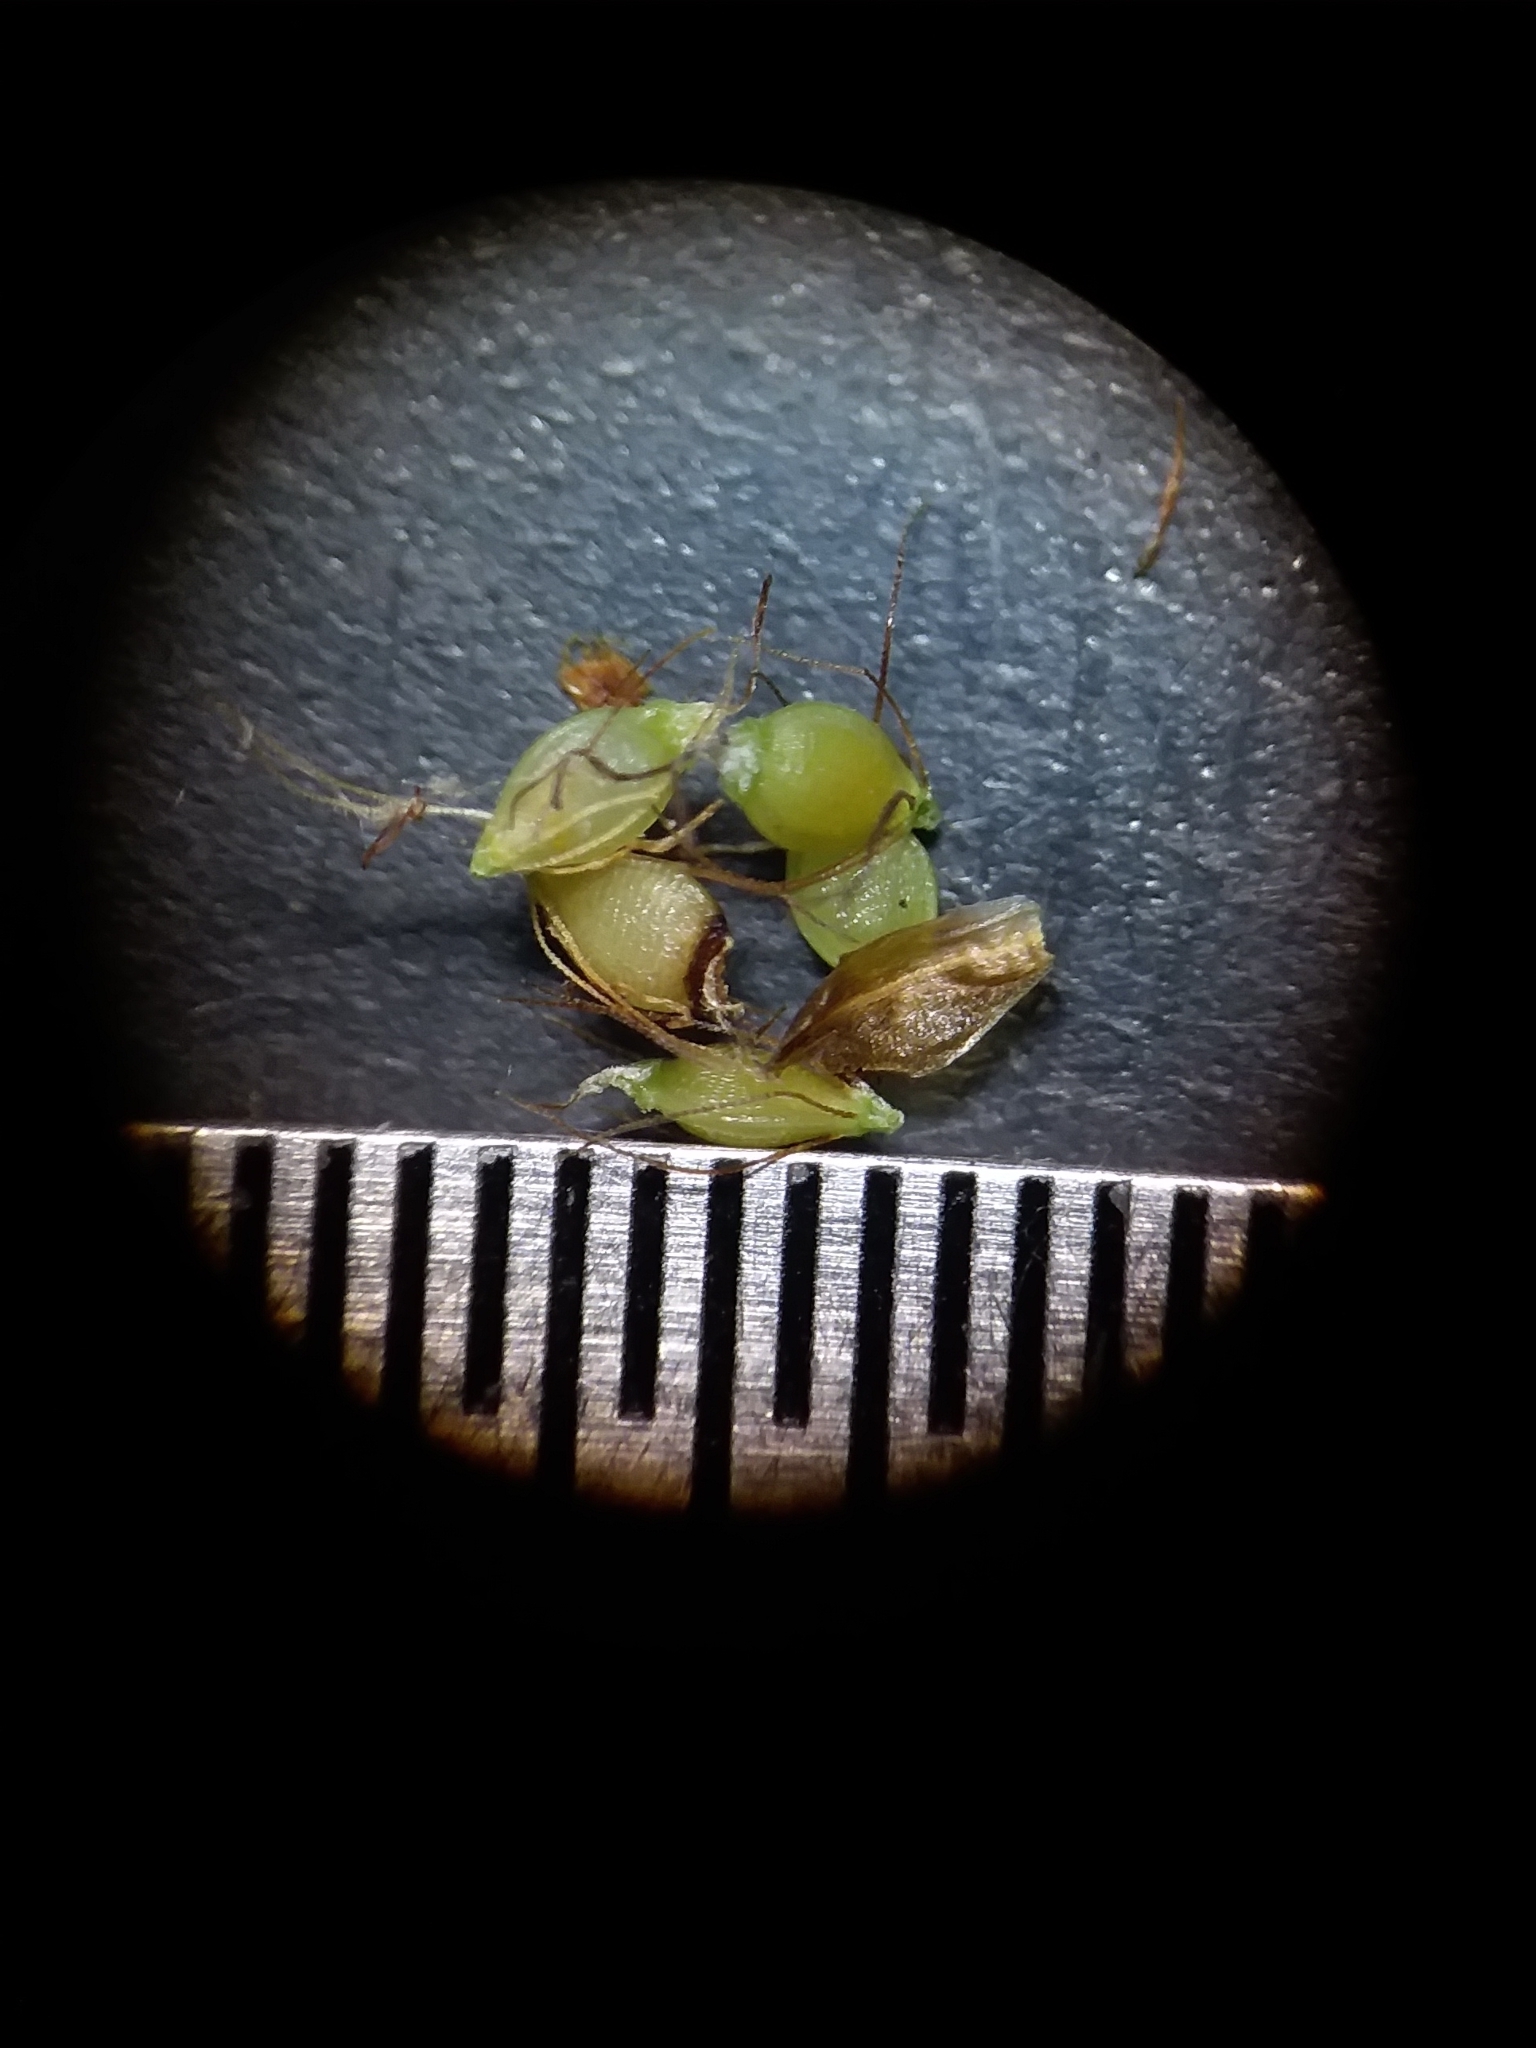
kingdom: Plantae
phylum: Tracheophyta
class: Liliopsida
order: Poales
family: Cyperaceae
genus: Rhynchospora
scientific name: Rhynchospora mixta
